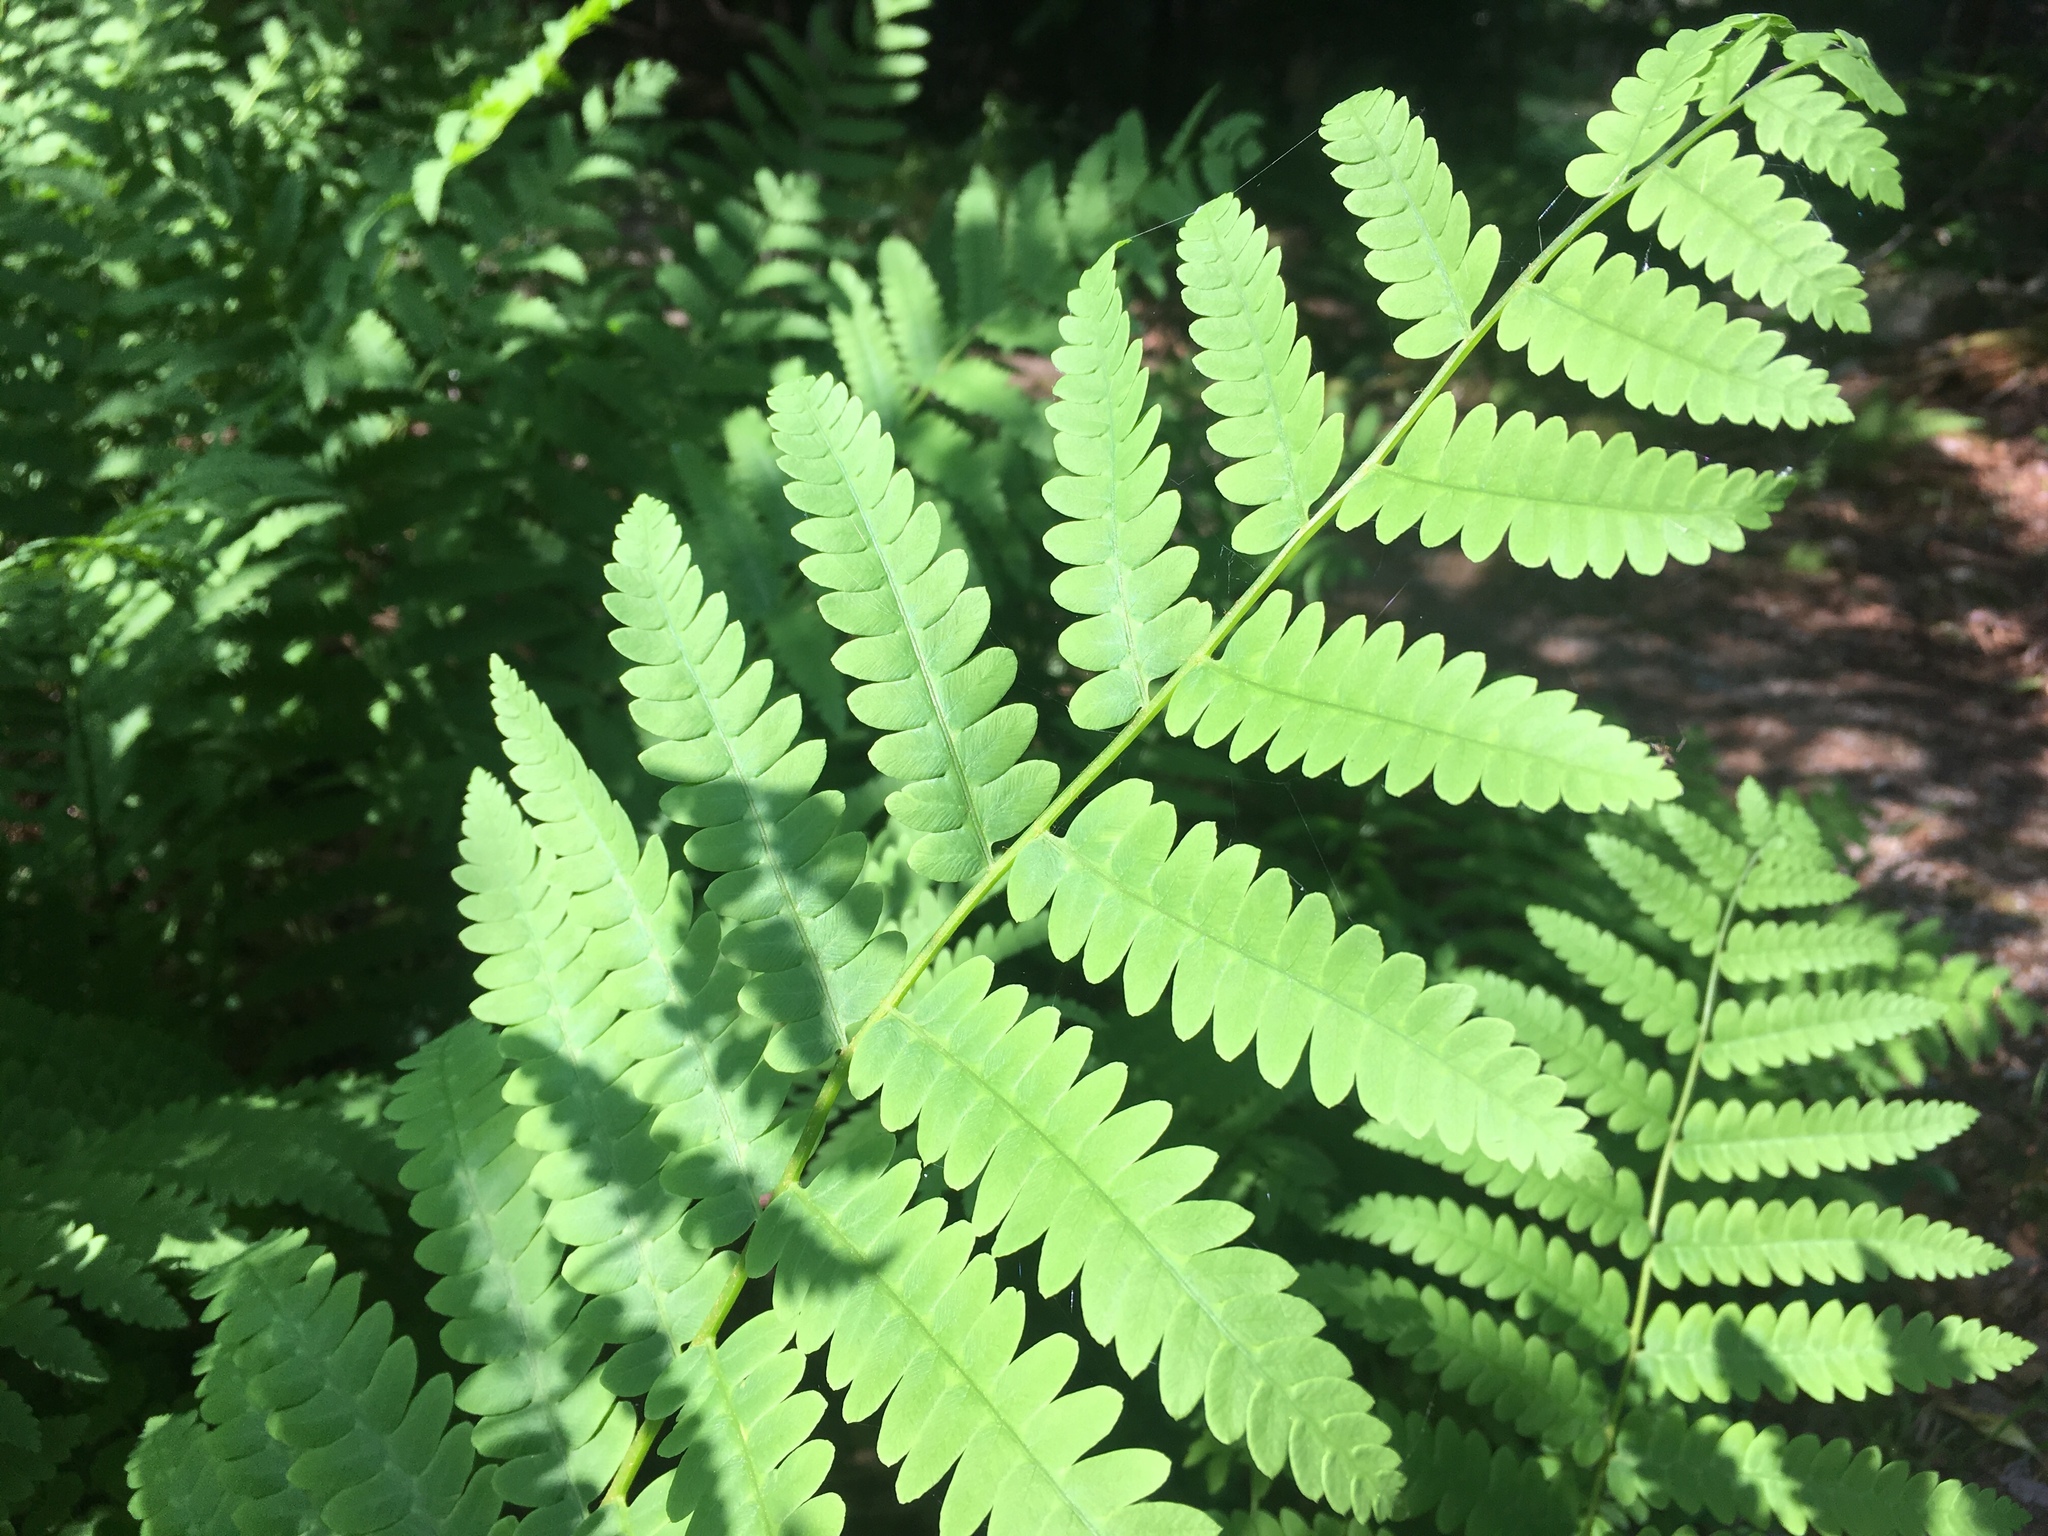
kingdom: Plantae
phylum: Tracheophyta
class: Polypodiopsida
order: Osmundales
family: Osmundaceae
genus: Claytosmunda
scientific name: Claytosmunda claytoniana
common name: Clayton's fern
